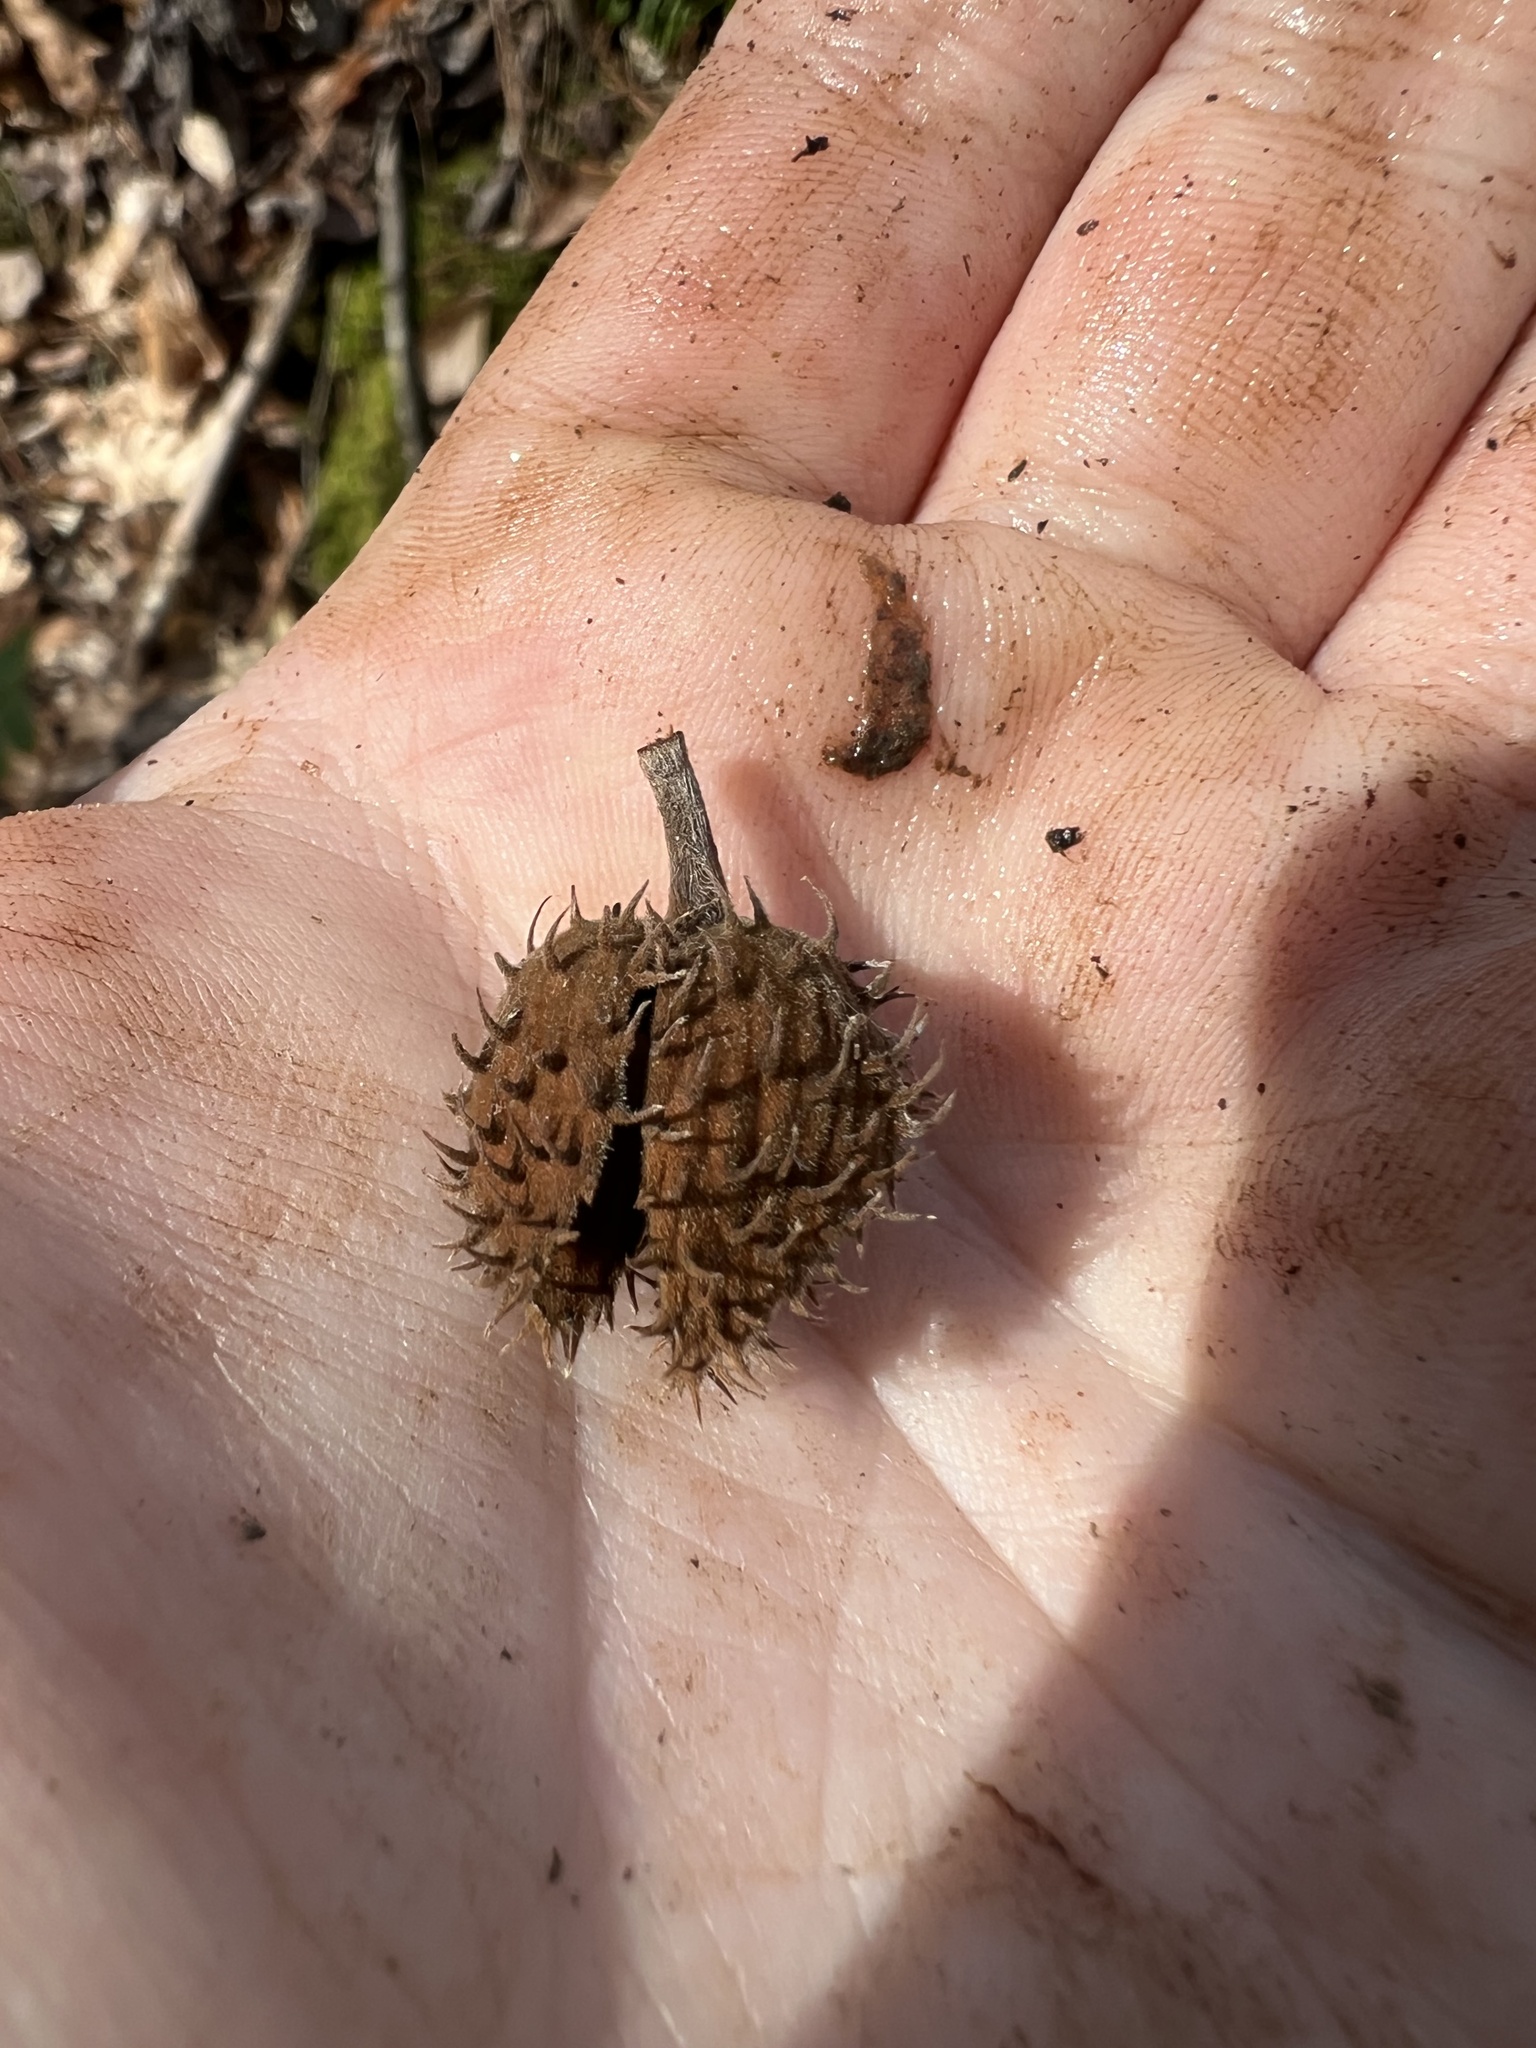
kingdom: Plantae
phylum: Tracheophyta
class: Magnoliopsida
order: Fagales
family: Fagaceae
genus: Fagus
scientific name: Fagus grandifolia
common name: American beech
